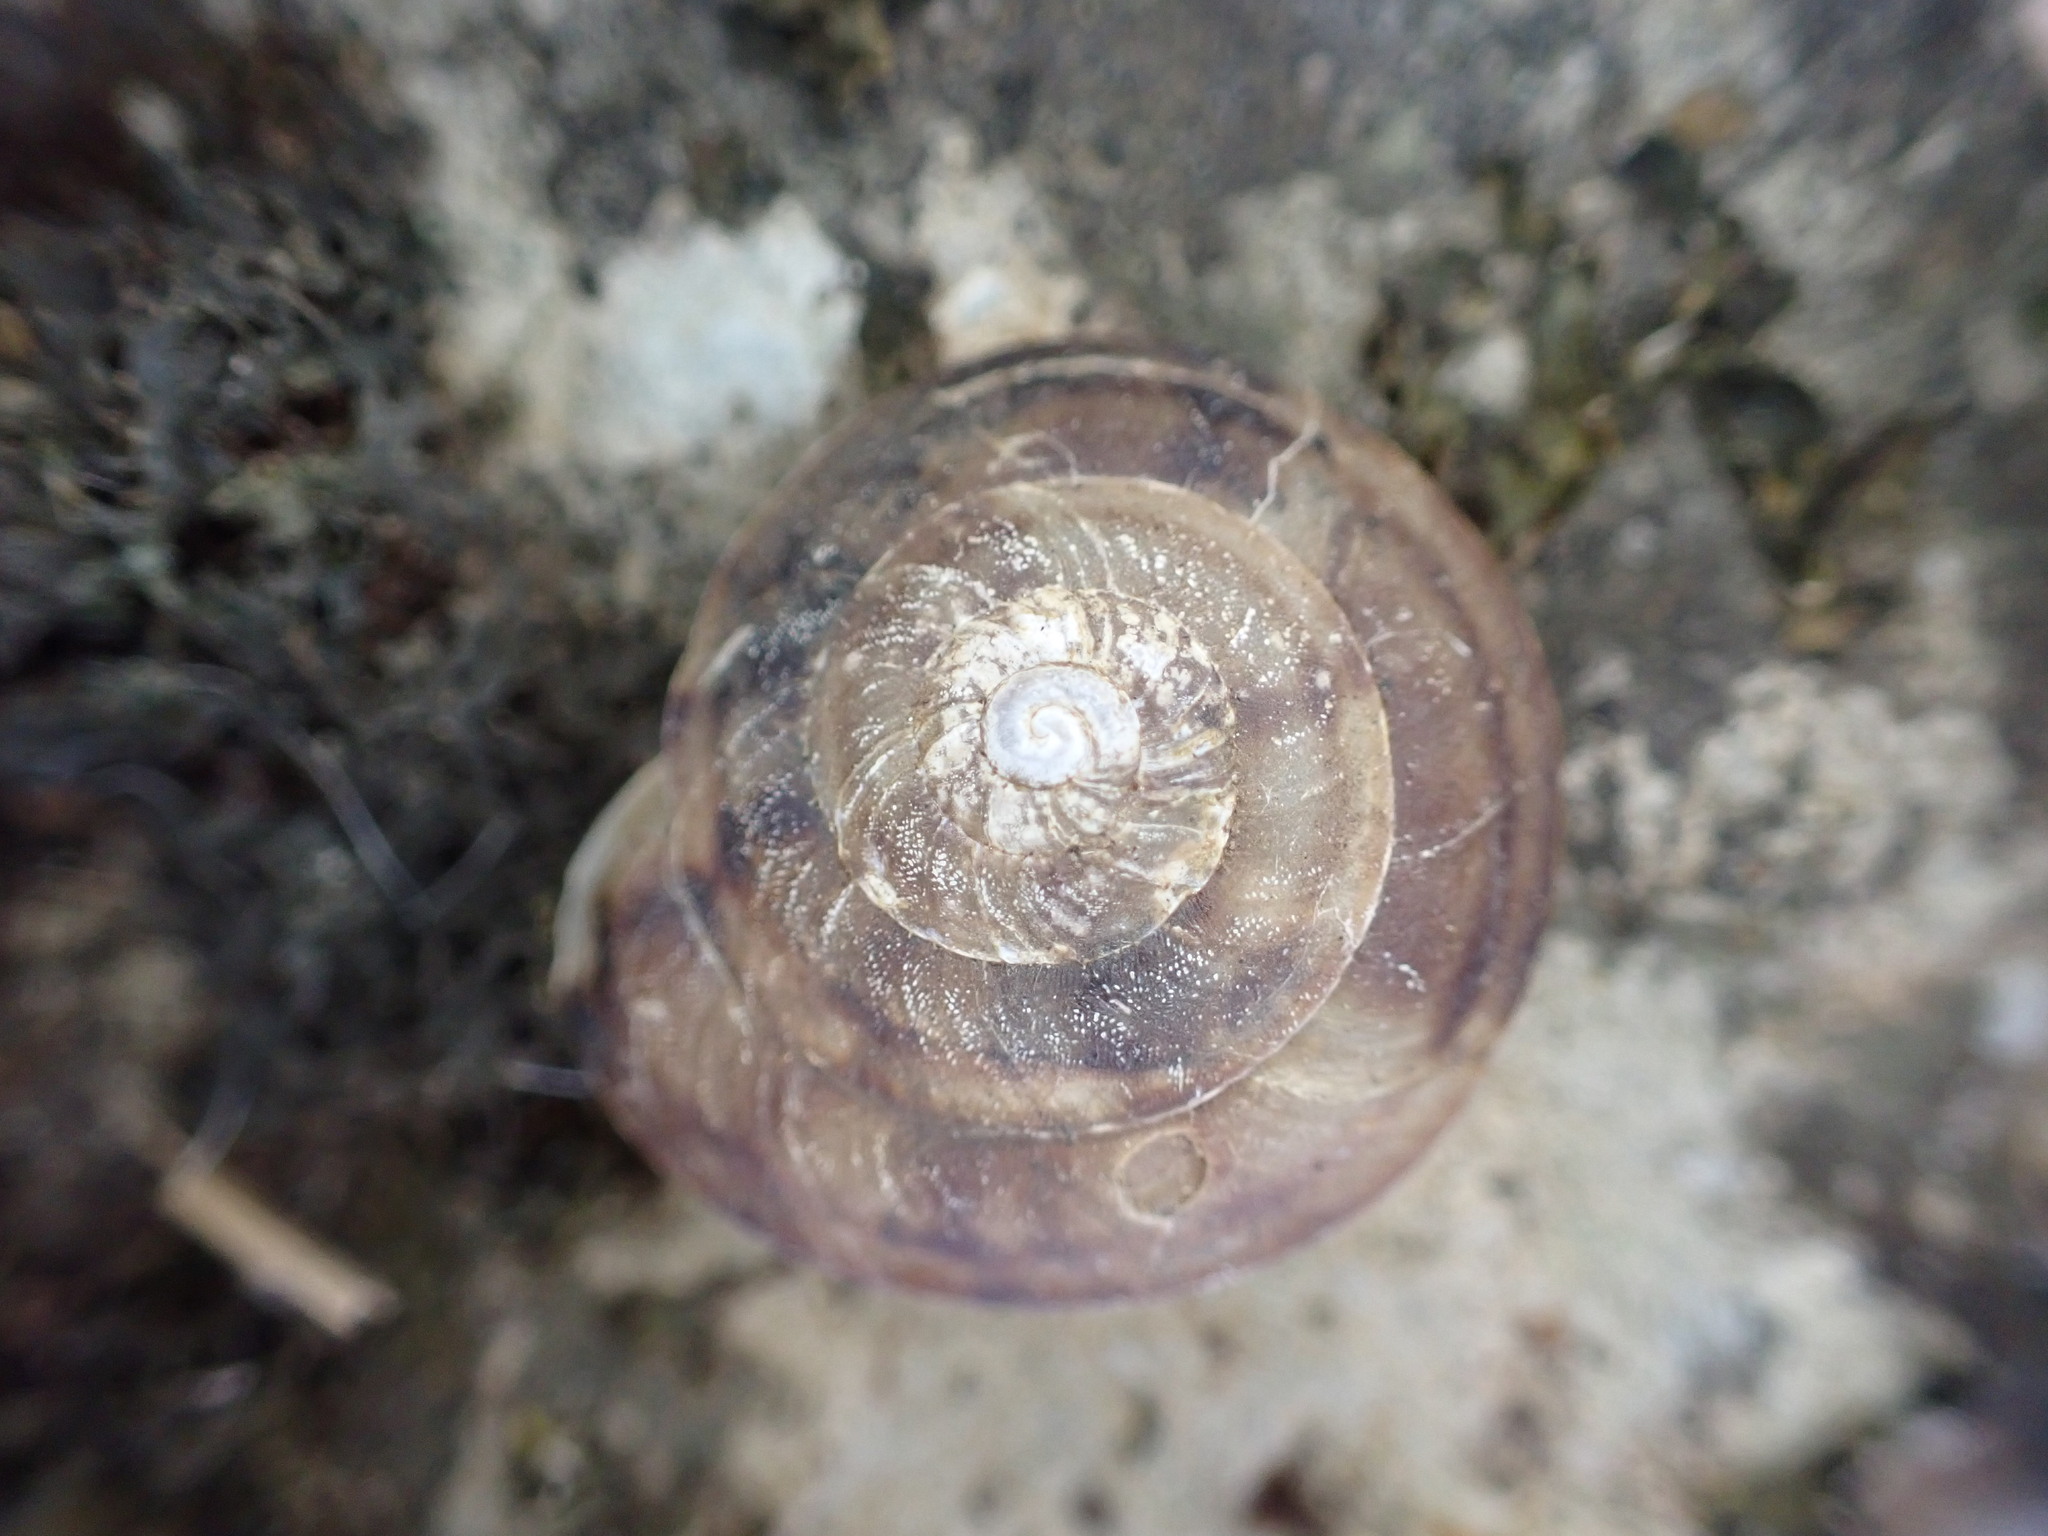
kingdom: Animalia
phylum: Mollusca
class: Gastropoda
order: Stylommatophora
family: Helicidae
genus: Helicigona
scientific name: Helicigona lapicida
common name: Lapidary snail
